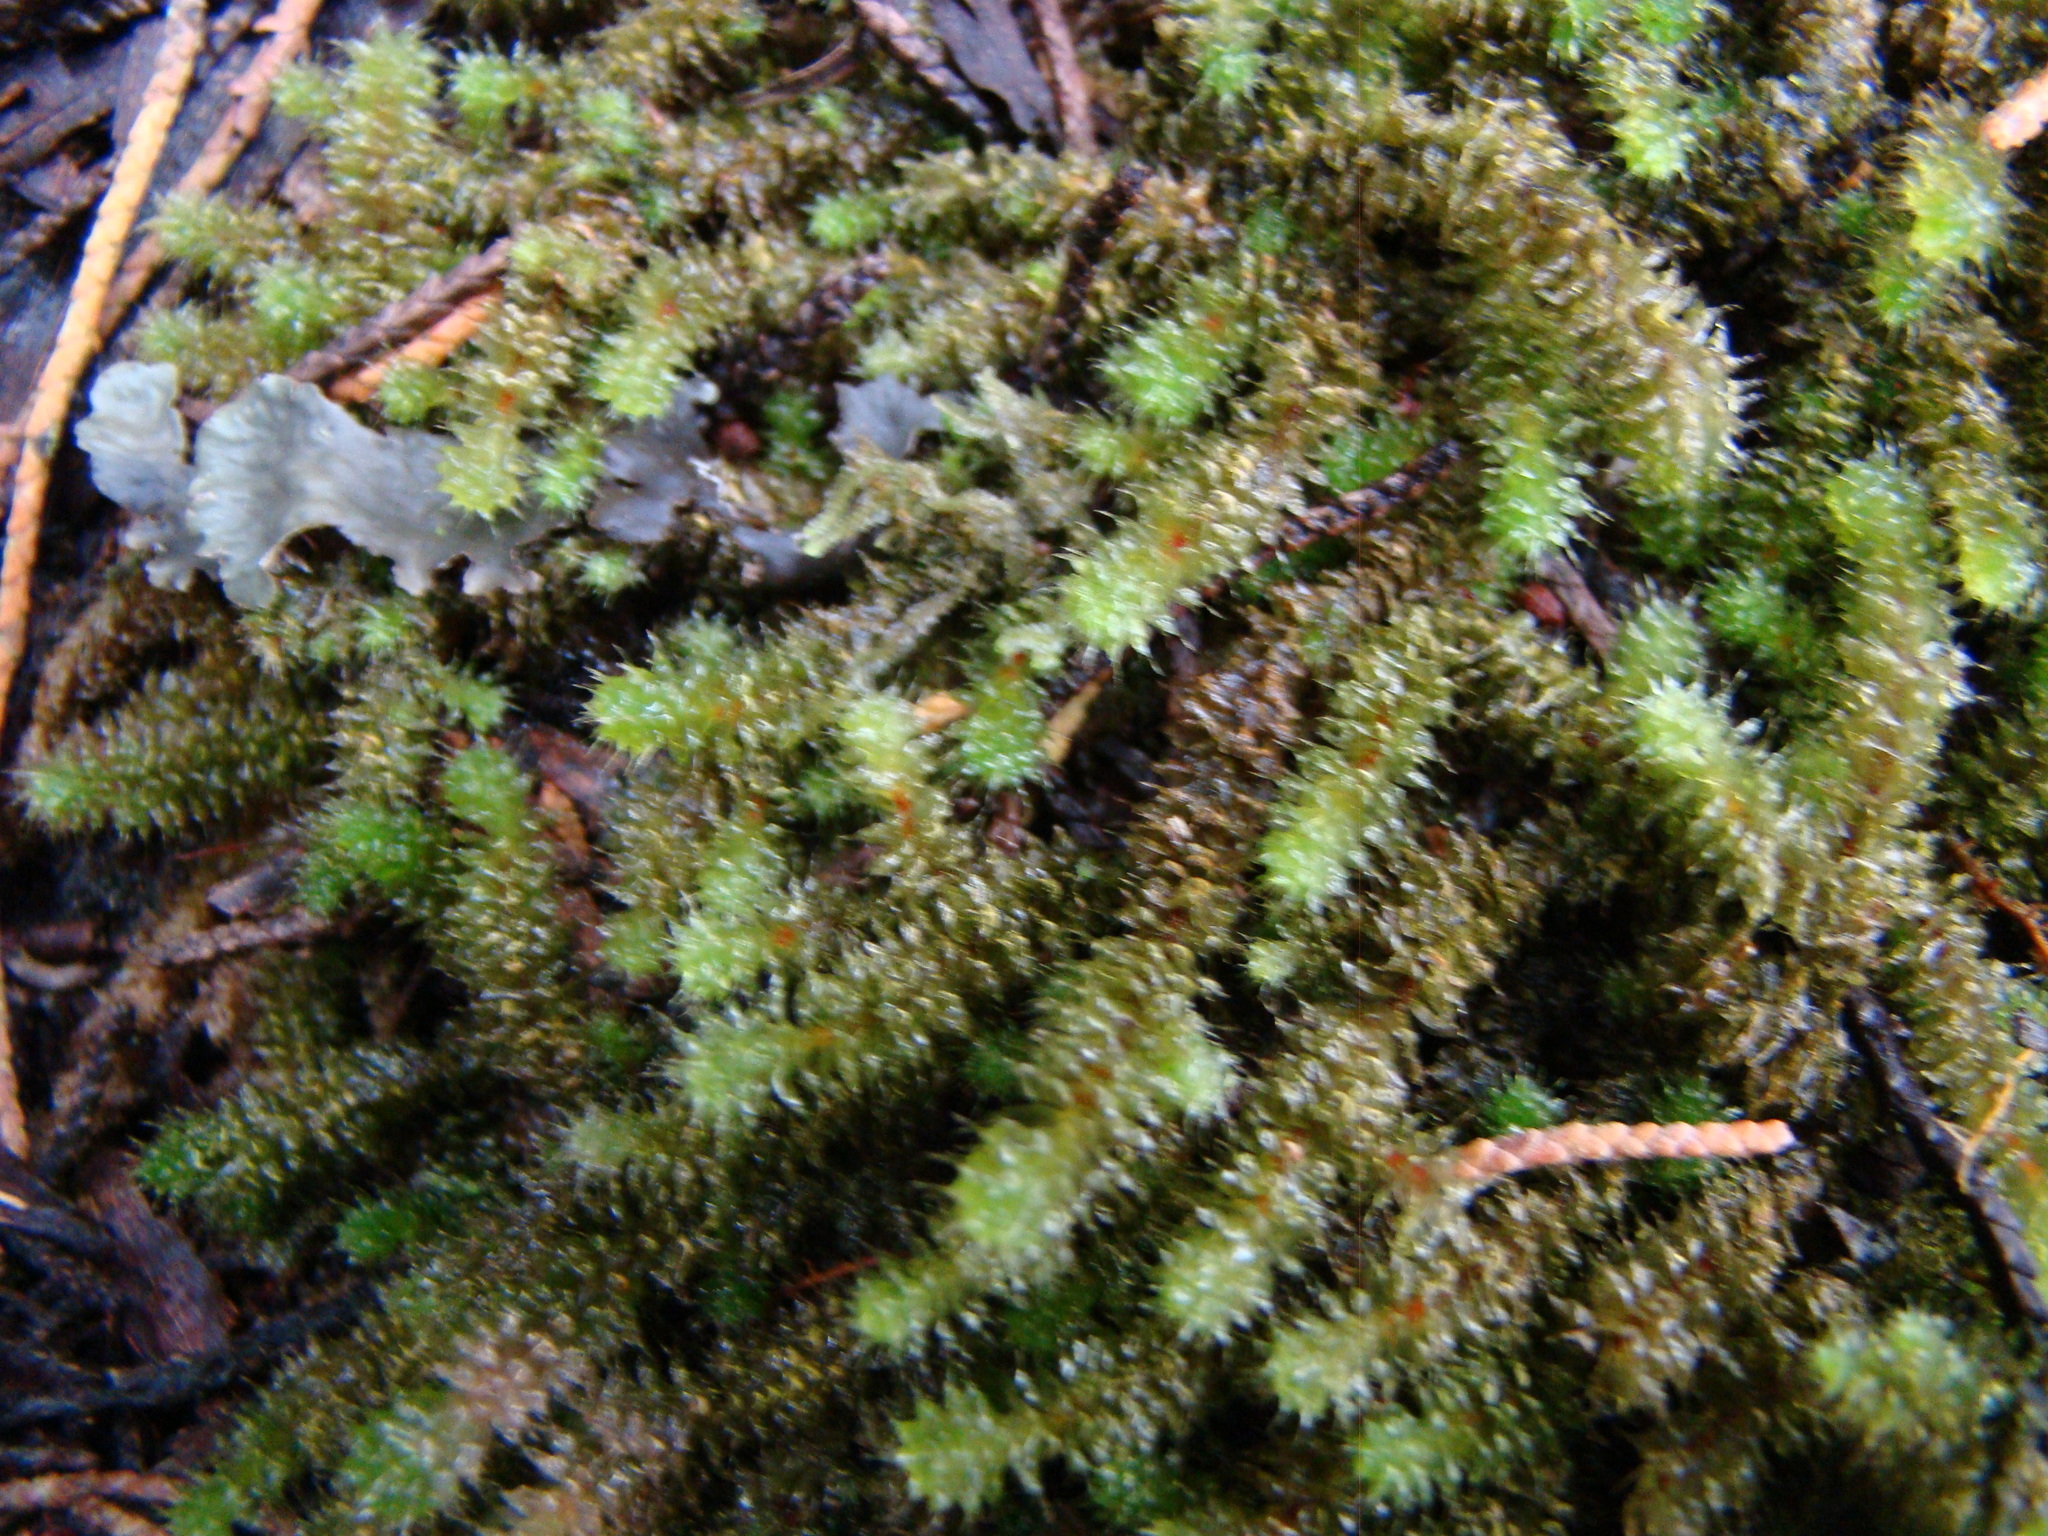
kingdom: Plantae
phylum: Bryophyta
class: Bryopsida
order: Ptychomniales
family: Ptychomniaceae
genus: Ptychomnion
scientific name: Ptychomnion aciculare
